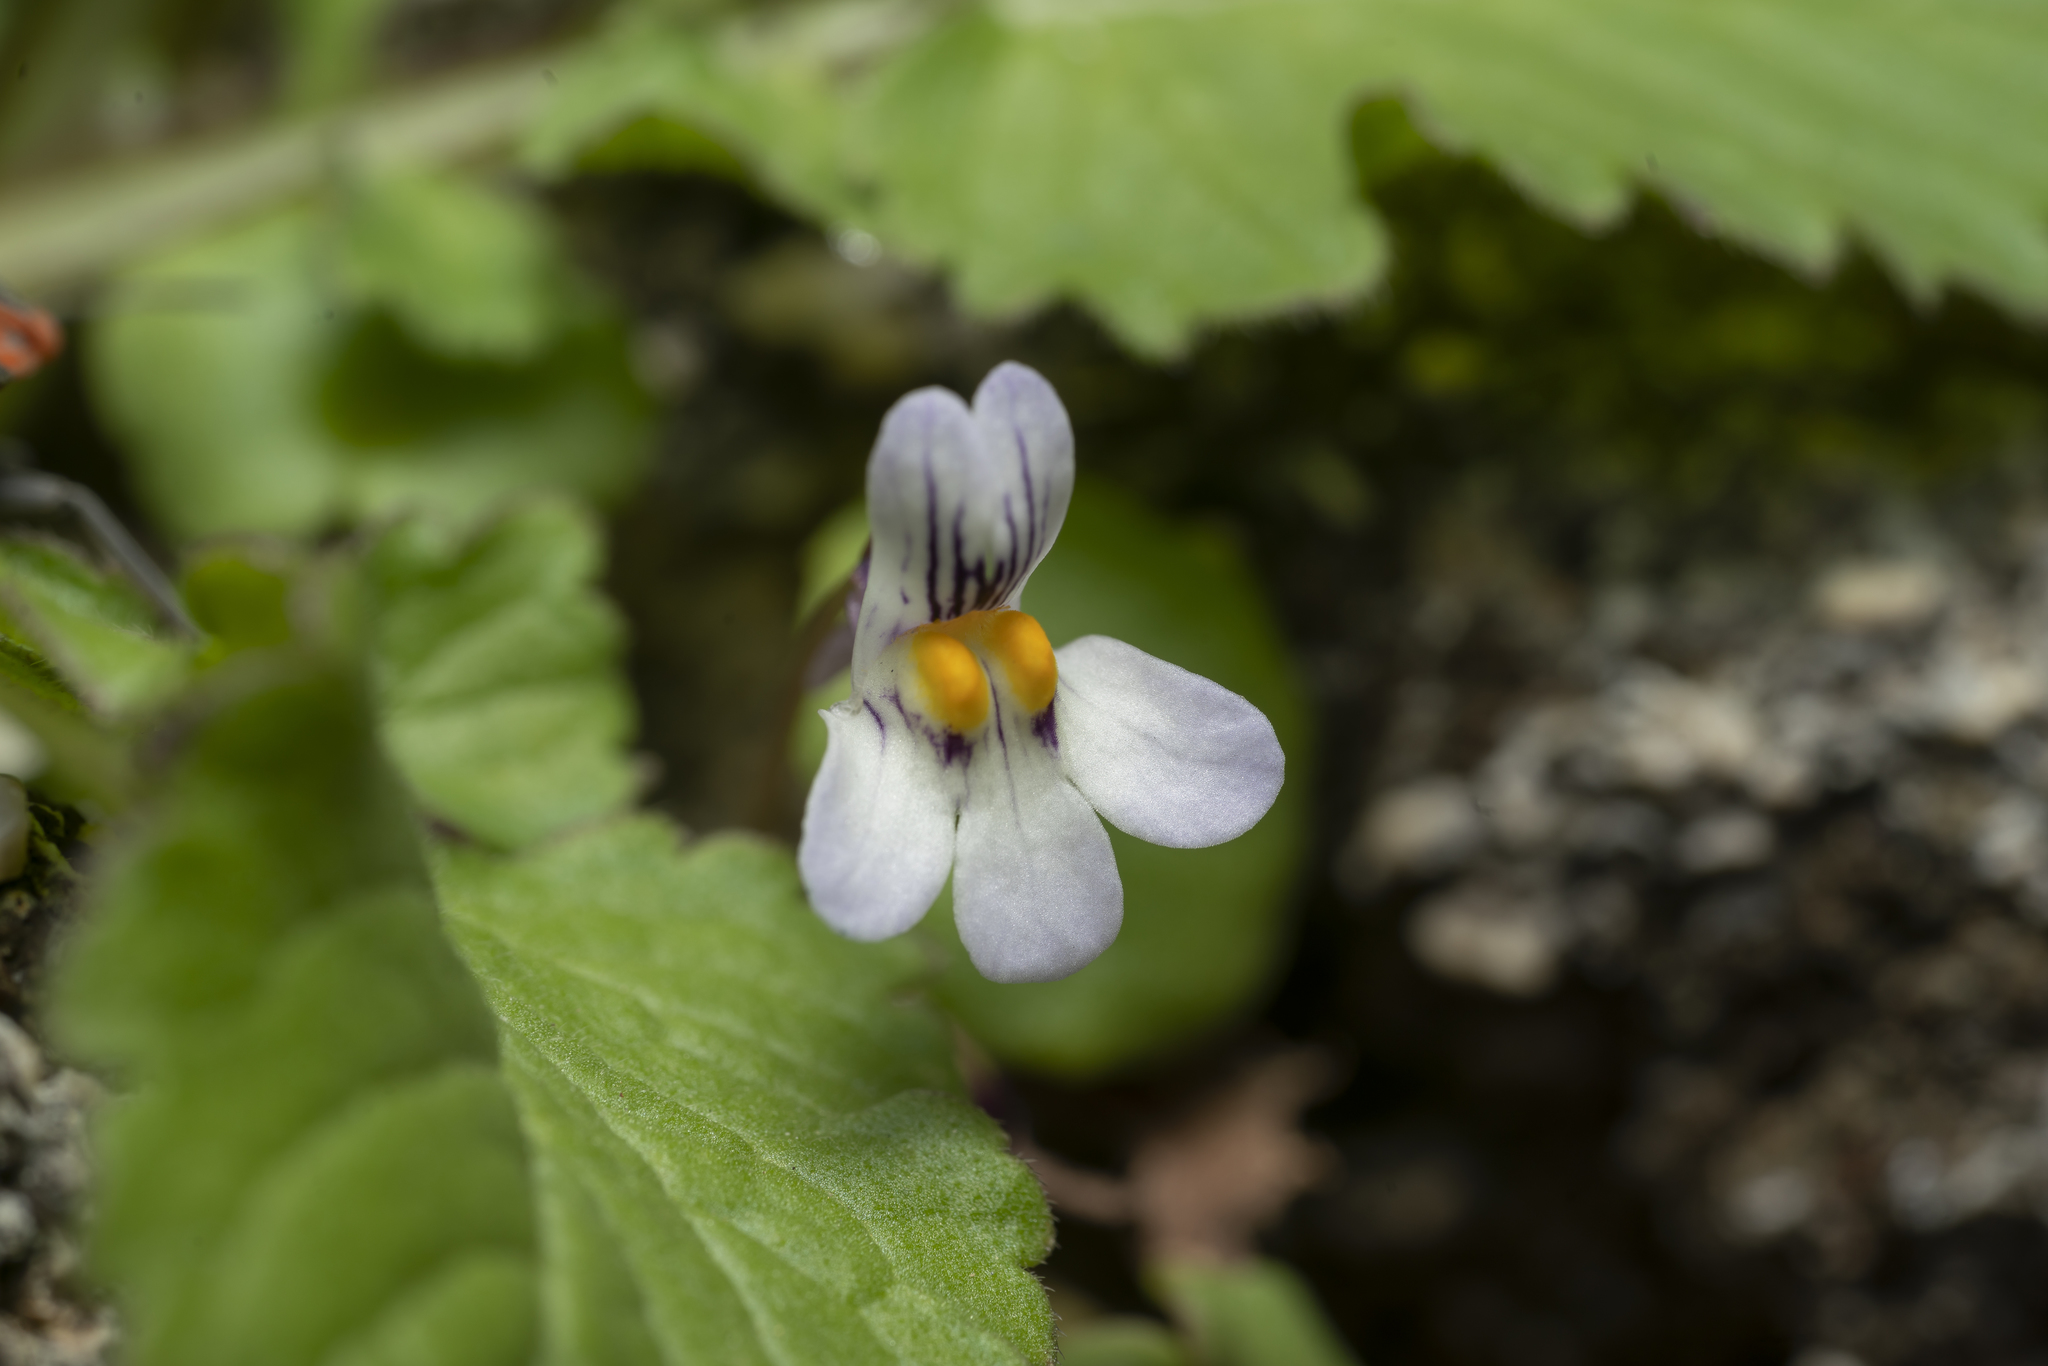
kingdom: Plantae
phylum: Tracheophyta
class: Magnoliopsida
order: Lamiales
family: Plantaginaceae
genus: Cymbalaria
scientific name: Cymbalaria longipes
